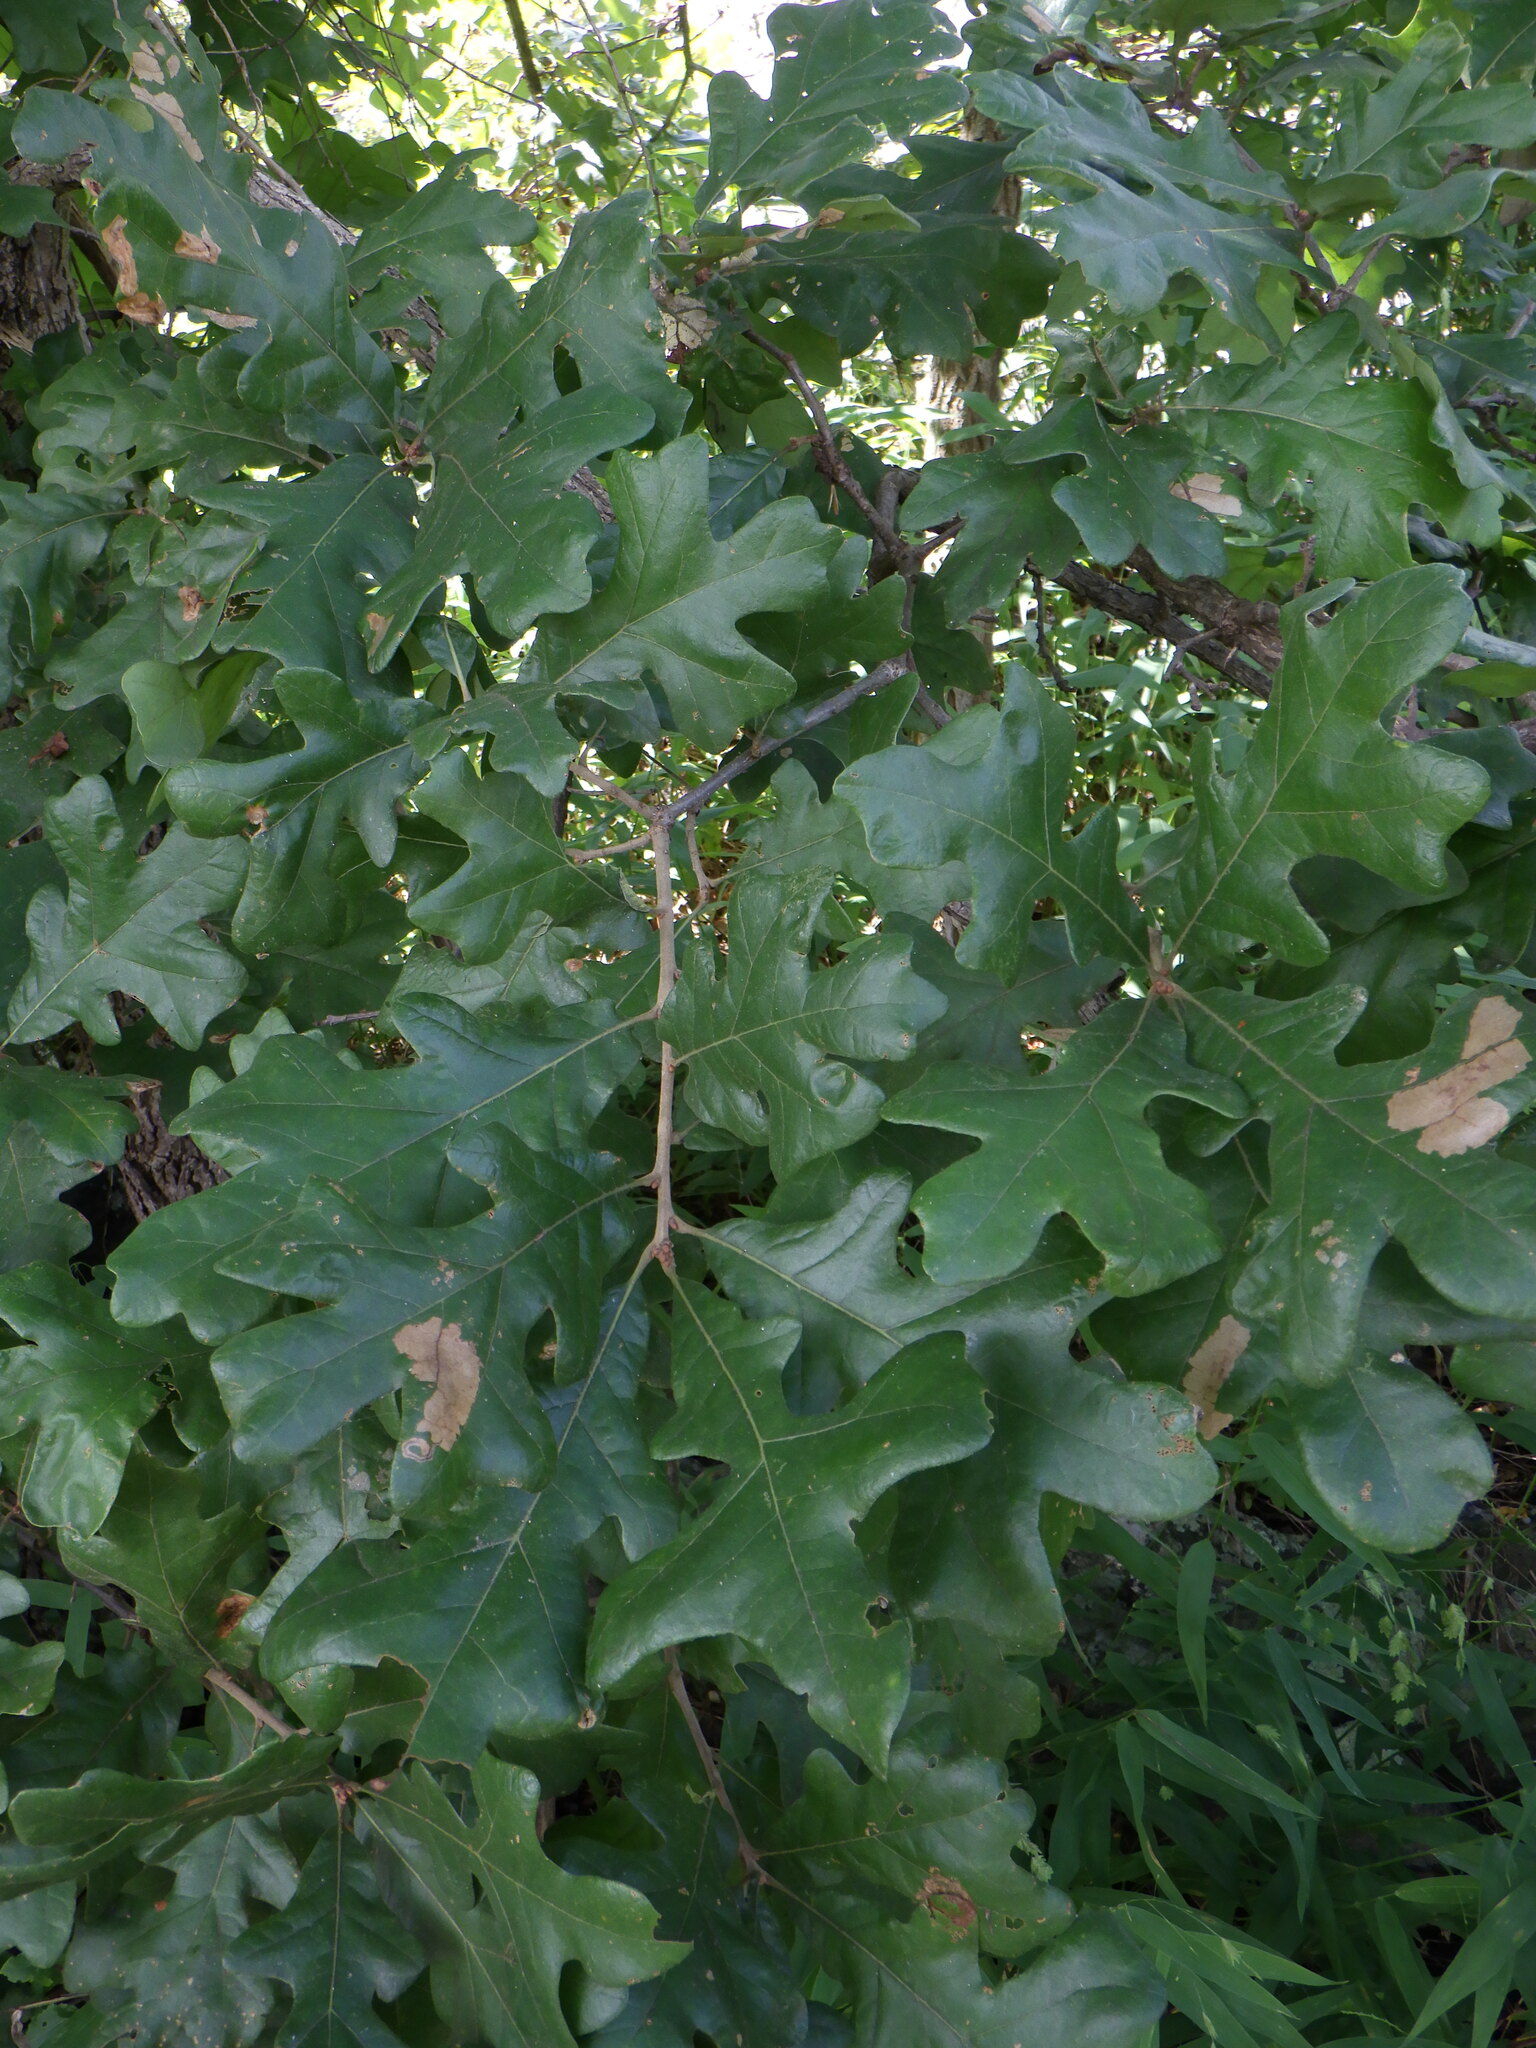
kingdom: Plantae
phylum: Tracheophyta
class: Magnoliopsida
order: Fagales
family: Fagaceae
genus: Quercus
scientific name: Quercus stellata
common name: Post oak
